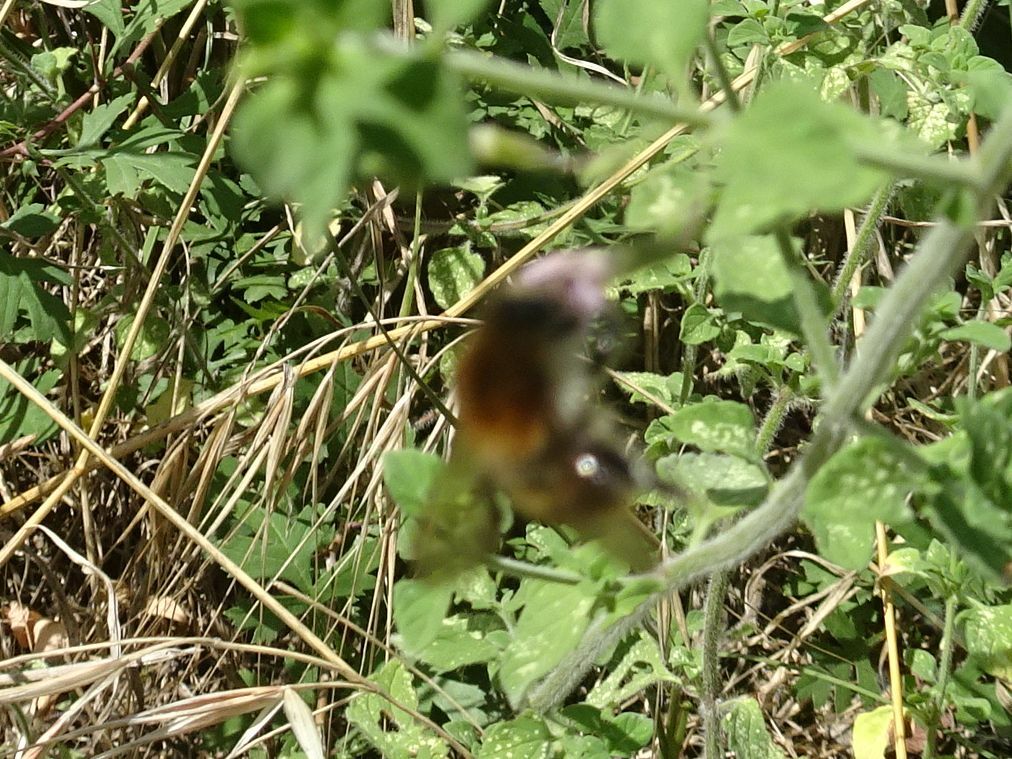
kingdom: Animalia
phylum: Arthropoda
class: Insecta
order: Hymenoptera
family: Apidae
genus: Bombus
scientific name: Bombus pascuorum
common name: Common carder bee
